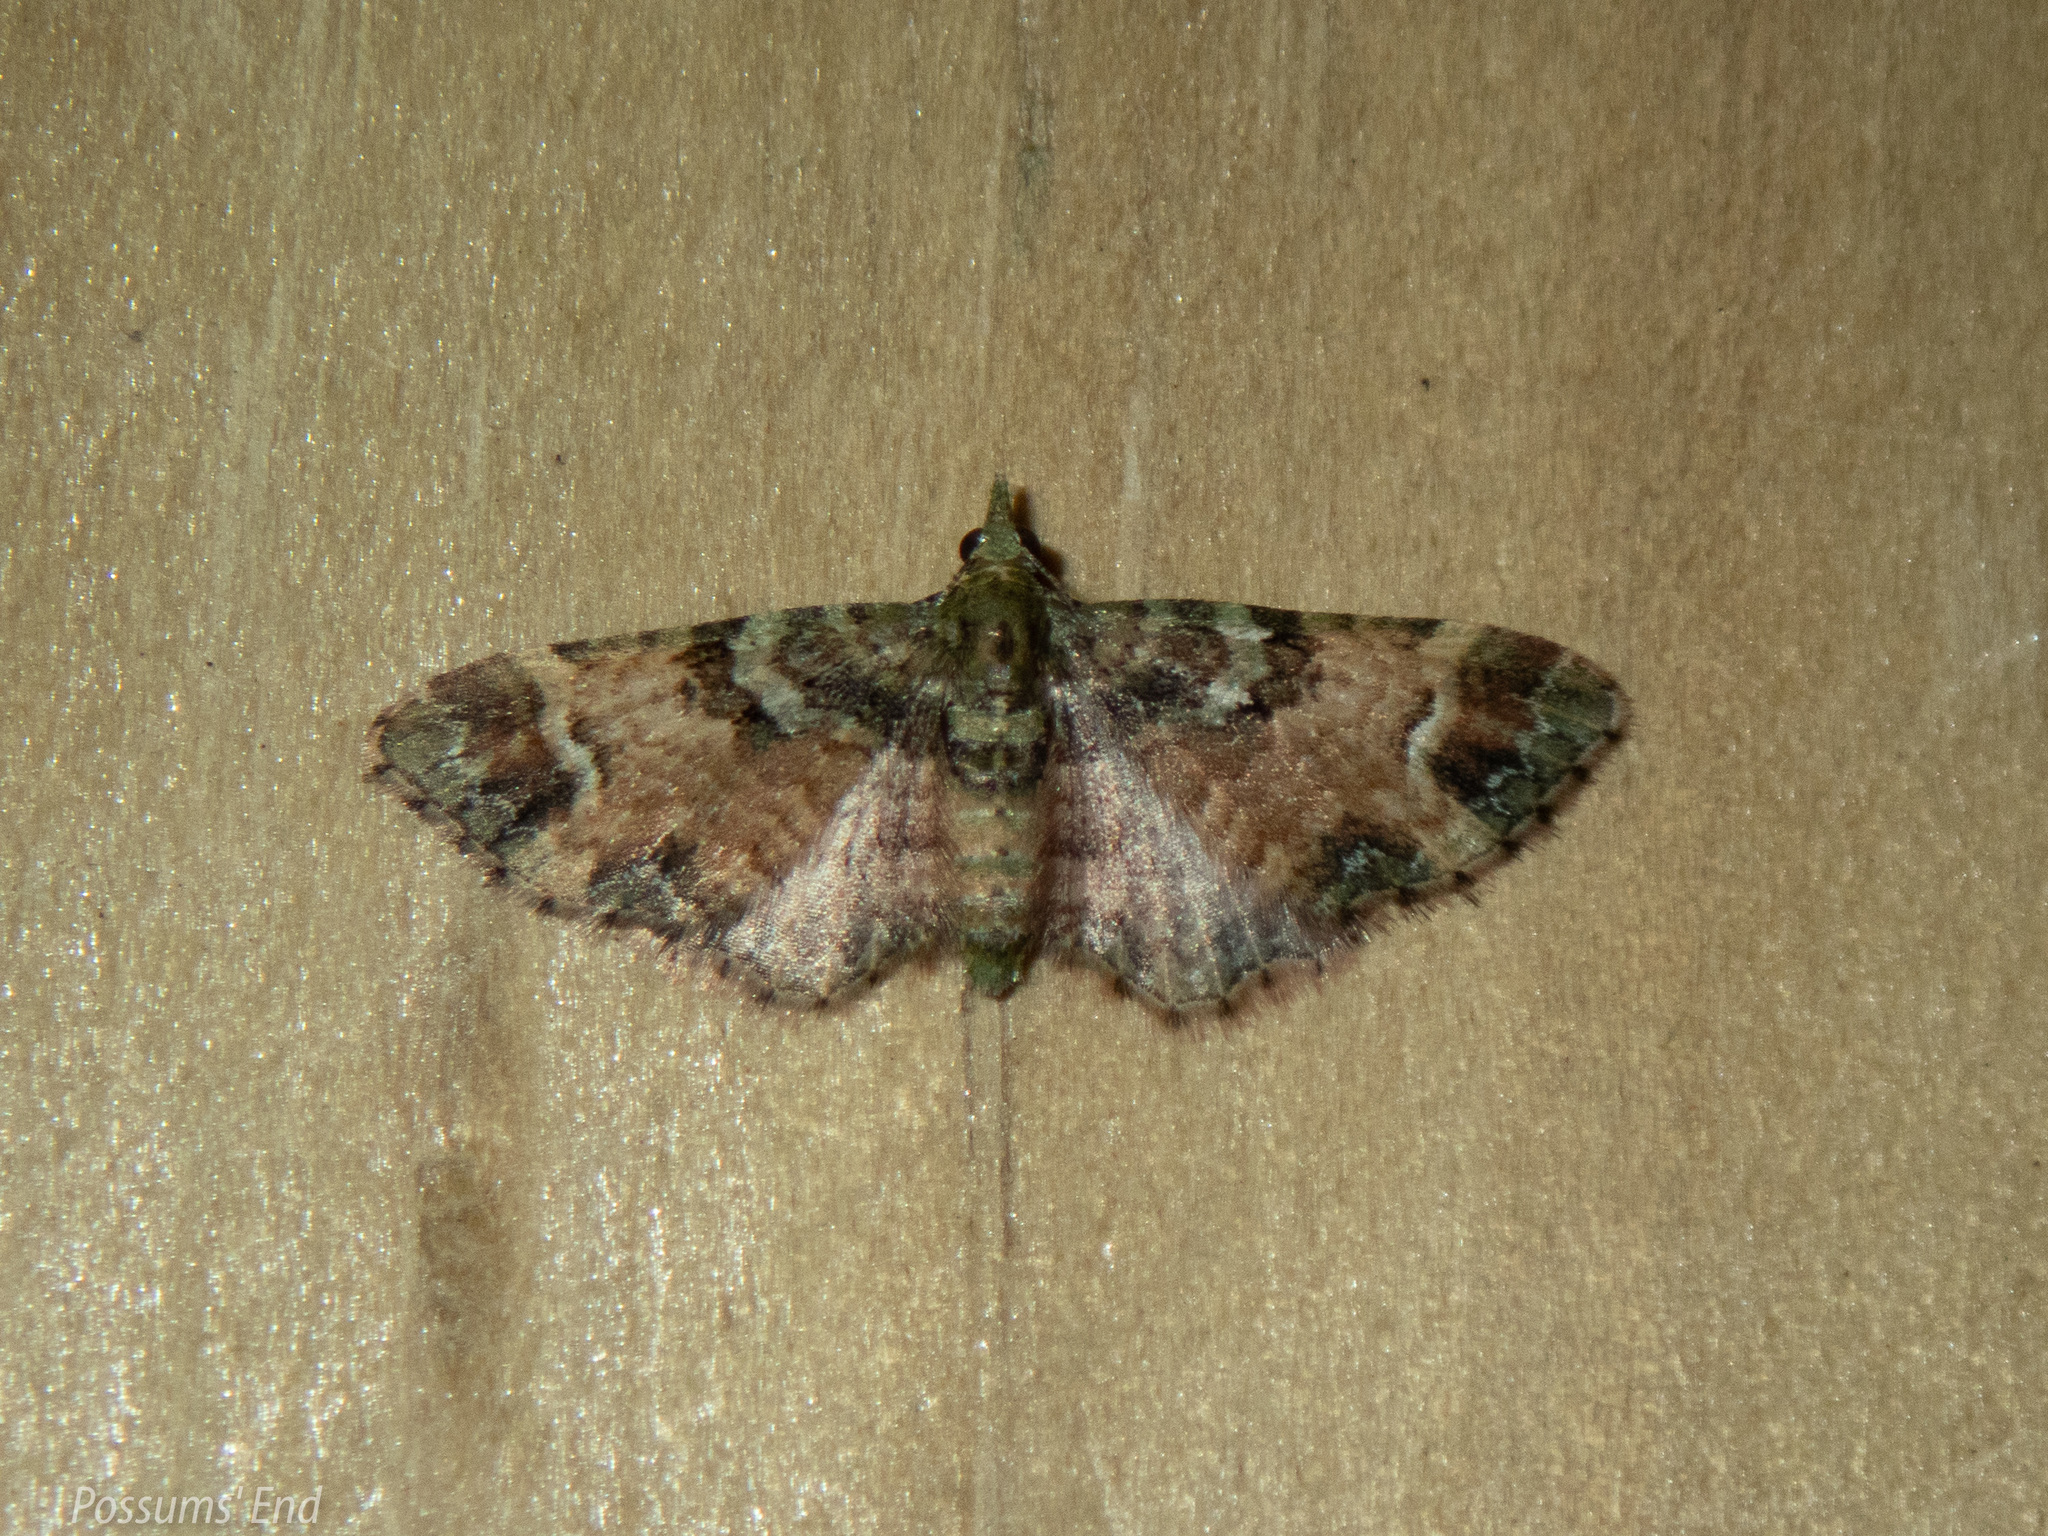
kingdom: Animalia
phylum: Arthropoda
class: Insecta
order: Lepidoptera
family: Geometridae
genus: Pasiphila
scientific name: Pasiphila sandycias
